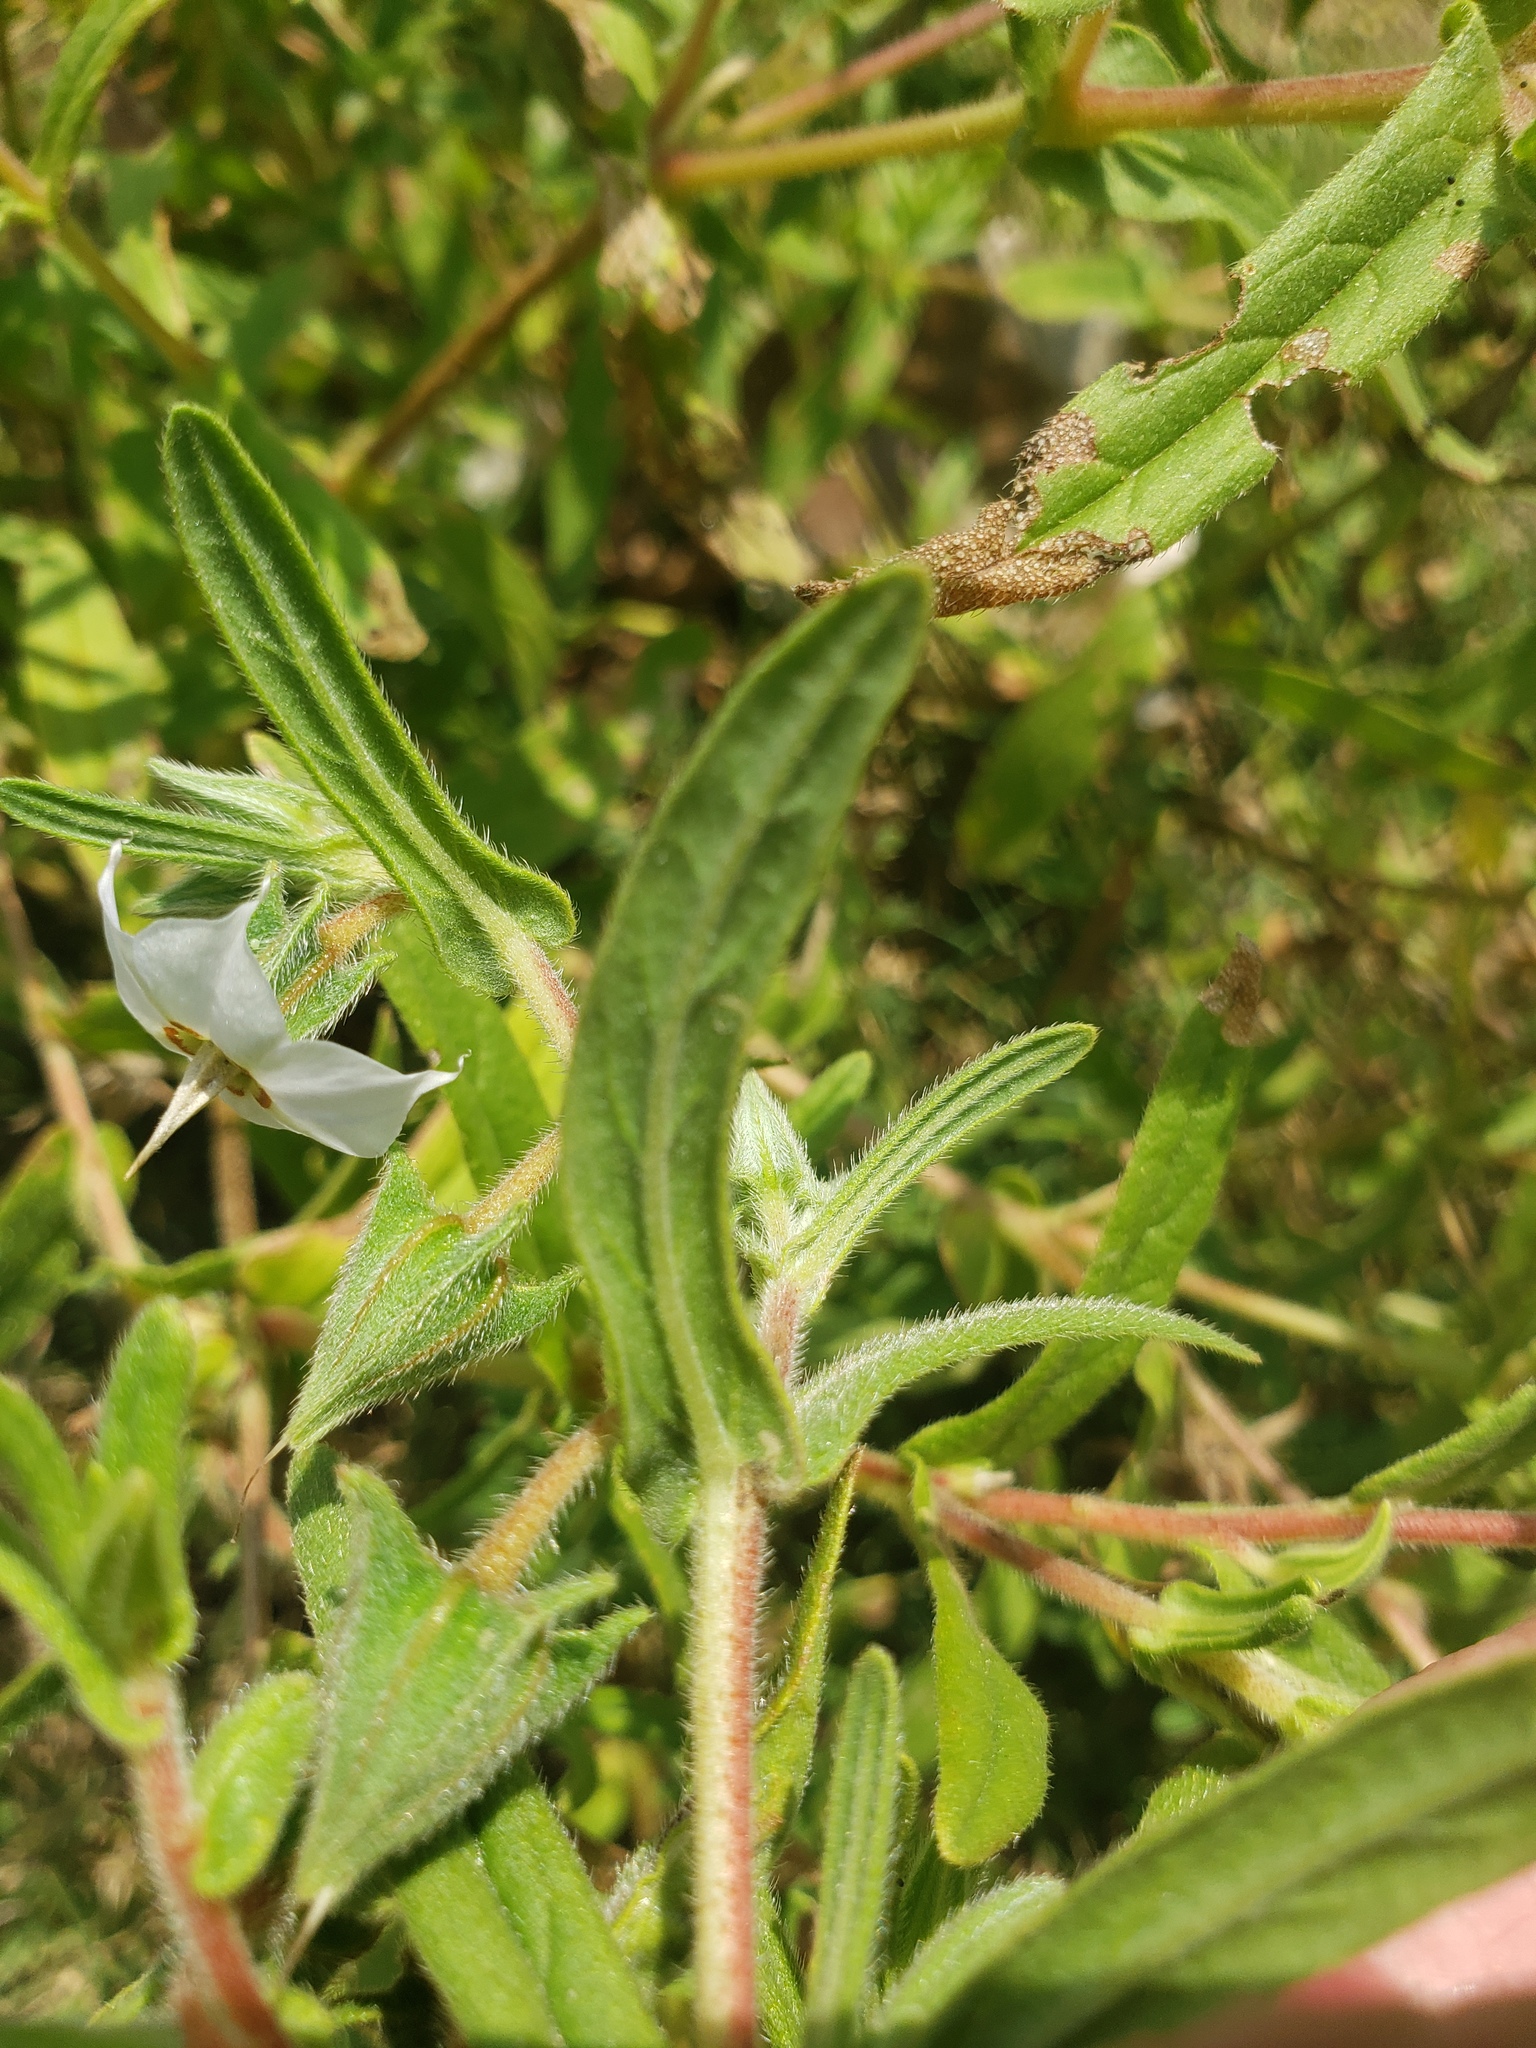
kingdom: Plantae
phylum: Tracheophyta
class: Magnoliopsida
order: Boraginales
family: Boraginaceae
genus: Trichodesma
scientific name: Trichodesma indicum
